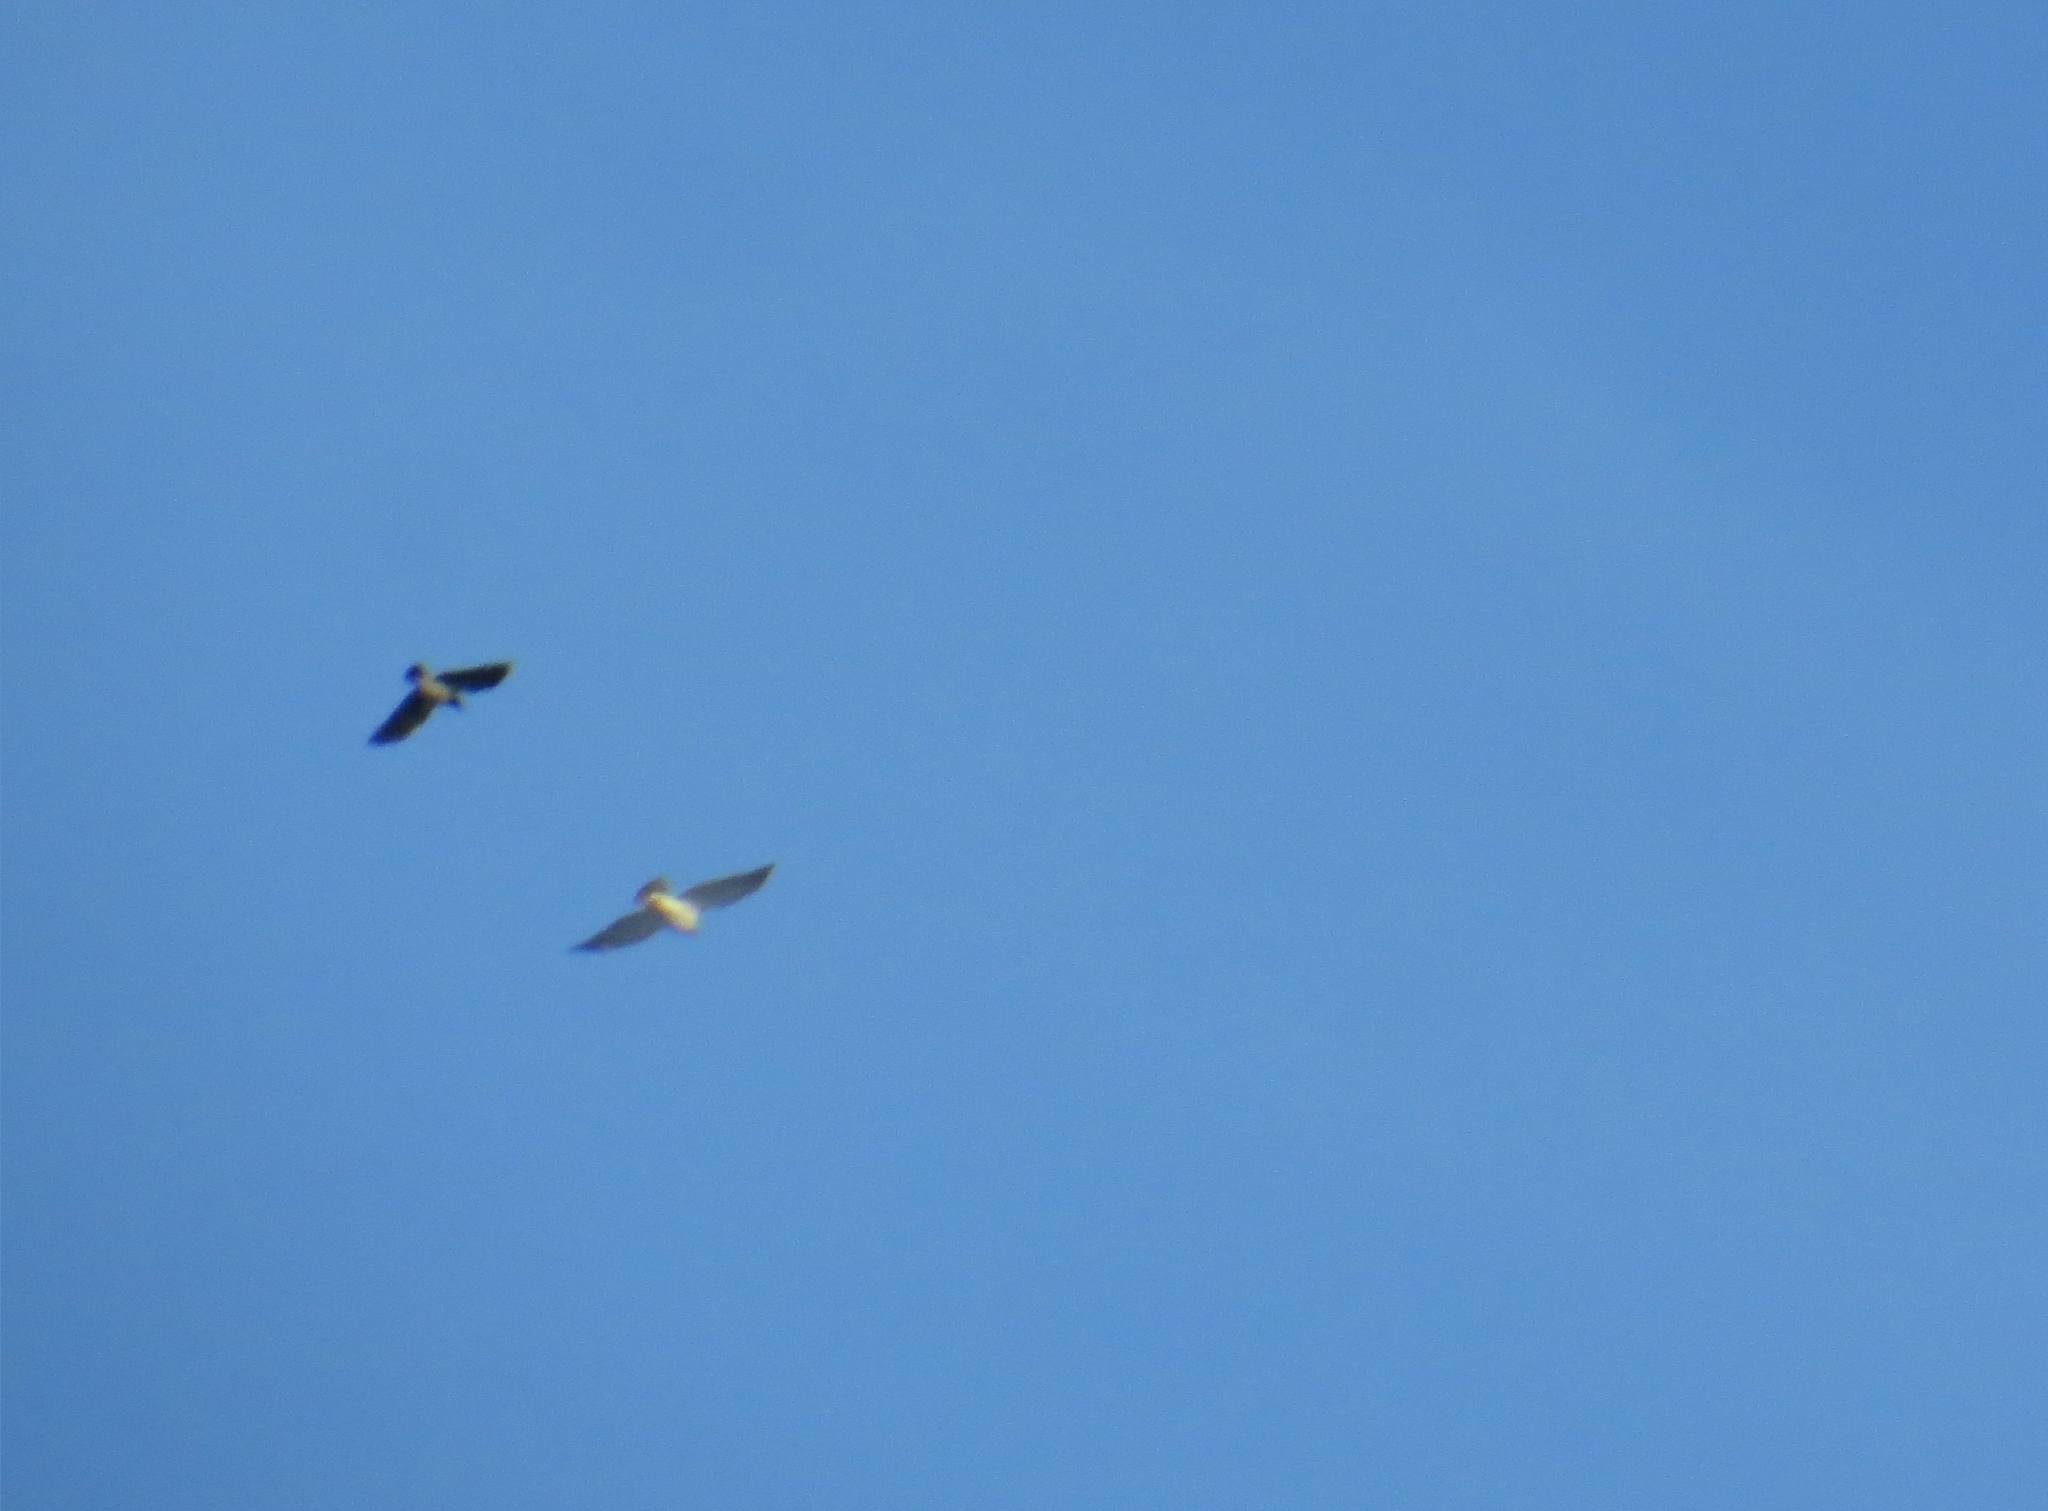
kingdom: Animalia
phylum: Chordata
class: Aves
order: Accipitriformes
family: Accipitridae
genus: Accipiter
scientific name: Accipiter gentilis
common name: Northern goshawk
